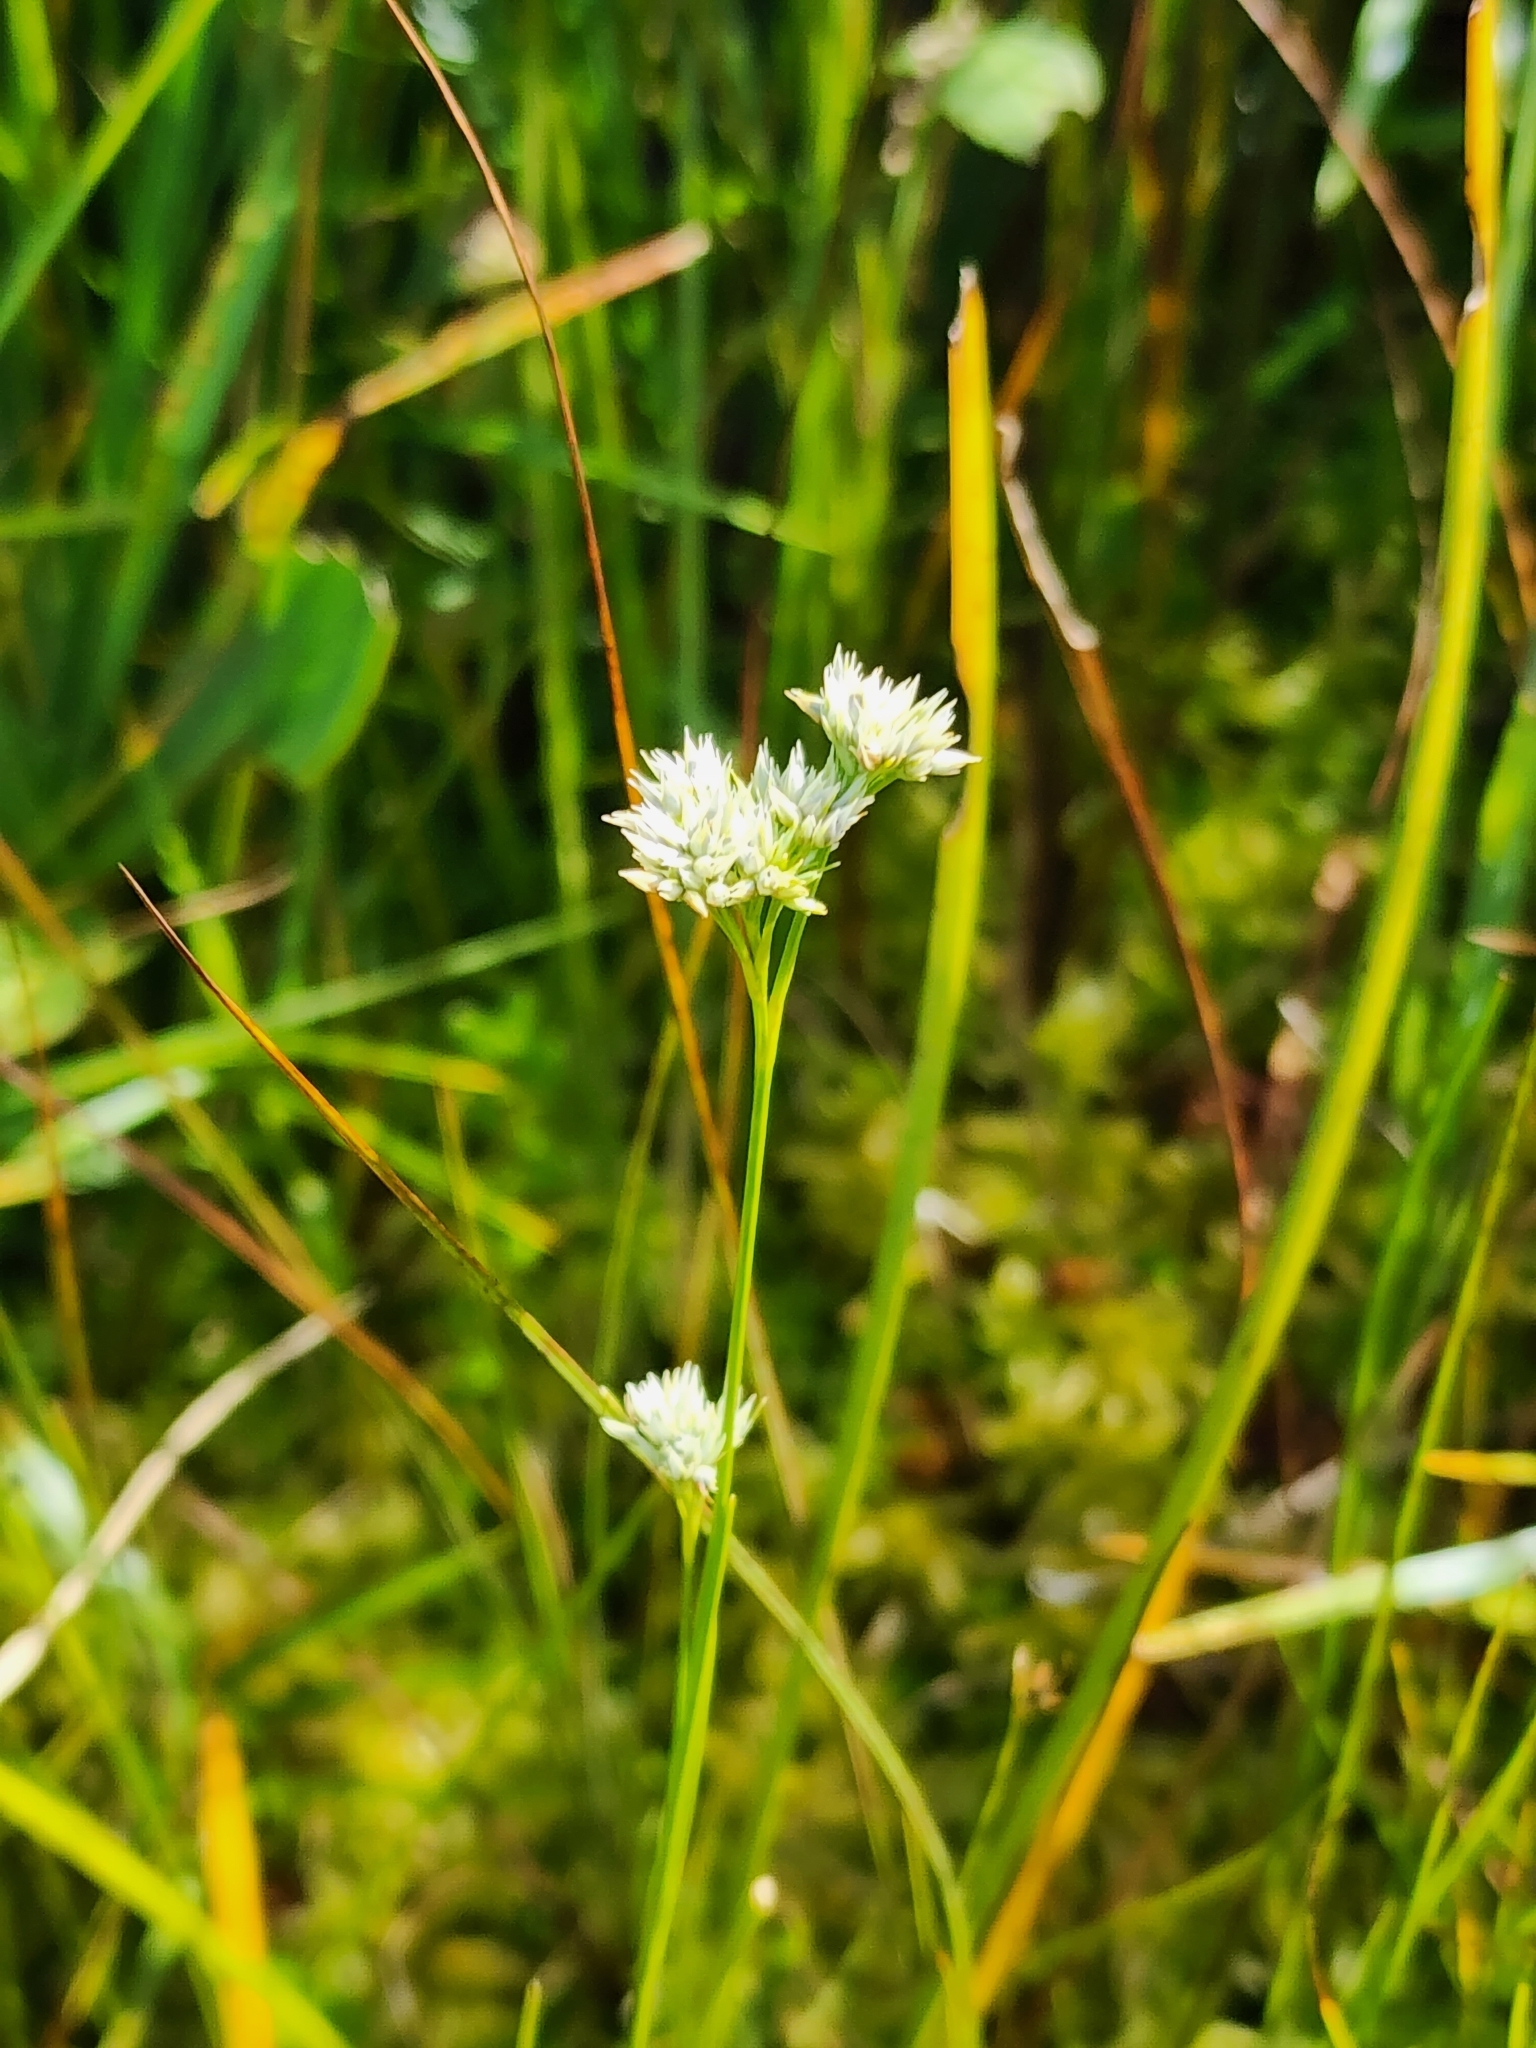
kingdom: Plantae
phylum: Tracheophyta
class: Liliopsida
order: Poales
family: Cyperaceae
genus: Rhynchospora
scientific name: Rhynchospora alba
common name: White beak-sedge
